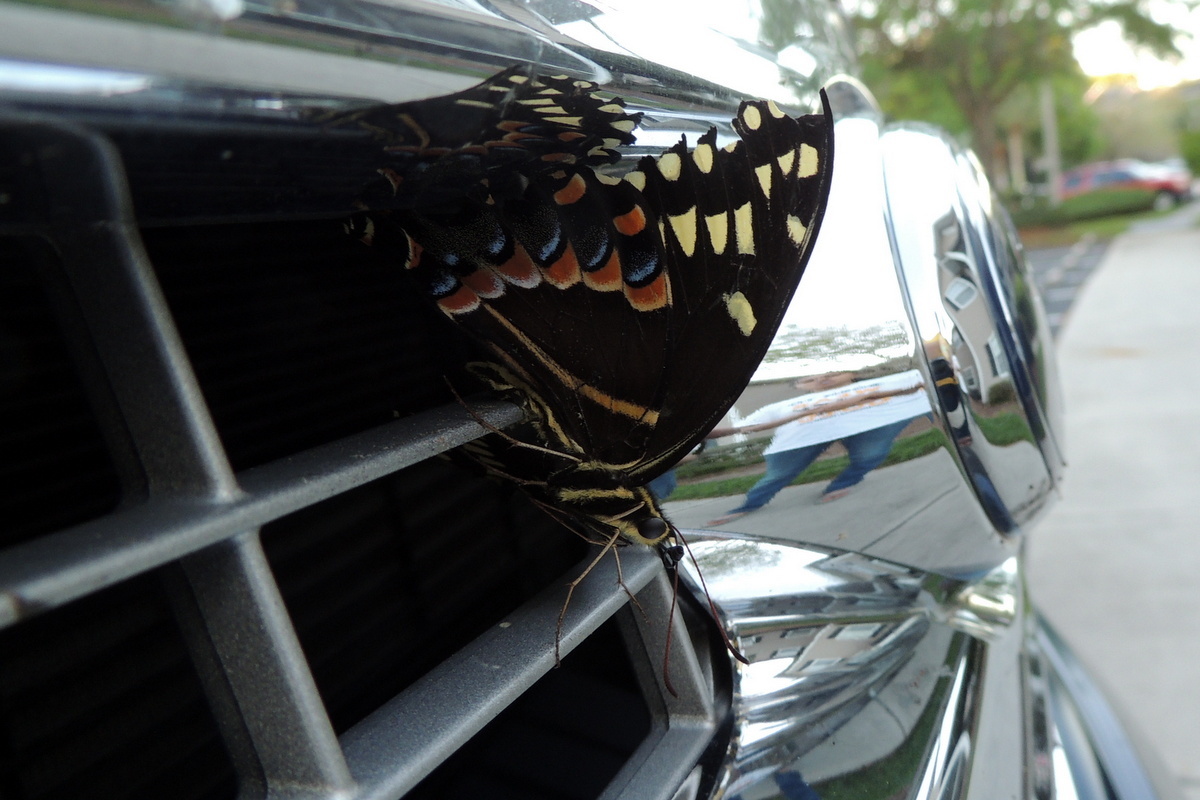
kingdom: Animalia
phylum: Arthropoda
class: Insecta
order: Lepidoptera
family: Papilionidae
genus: Papilio
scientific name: Papilio palamedes
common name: Palamedes swallowtail
